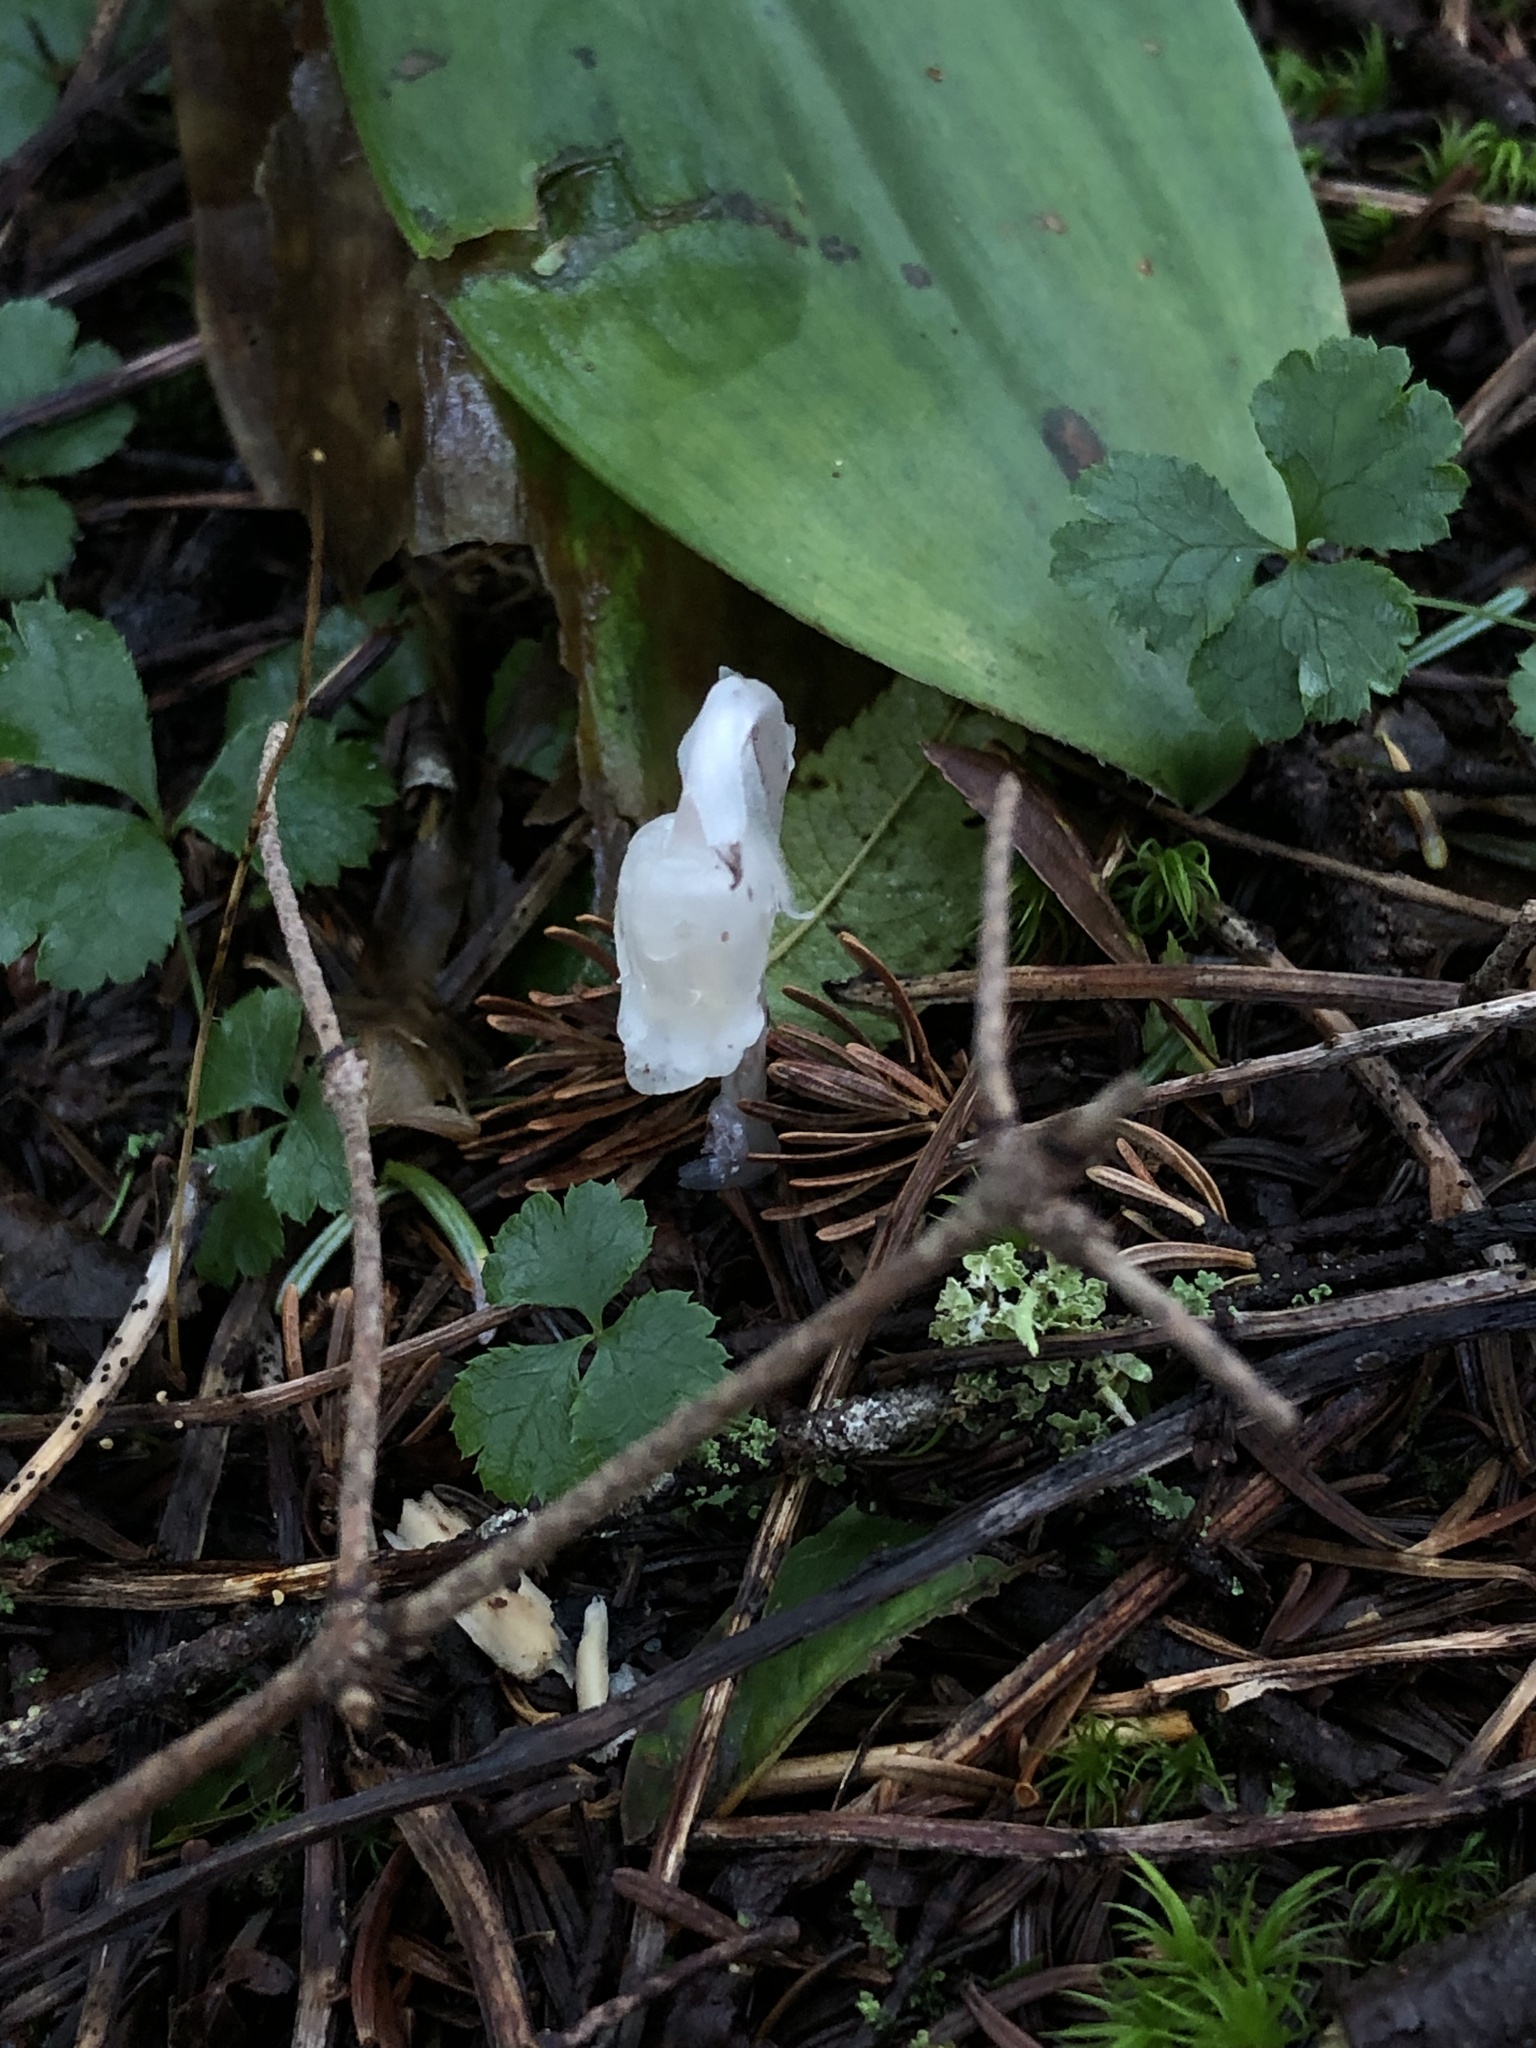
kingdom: Plantae
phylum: Tracheophyta
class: Magnoliopsida
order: Ericales
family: Ericaceae
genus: Monotropa
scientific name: Monotropa uniflora
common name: Convulsion root
